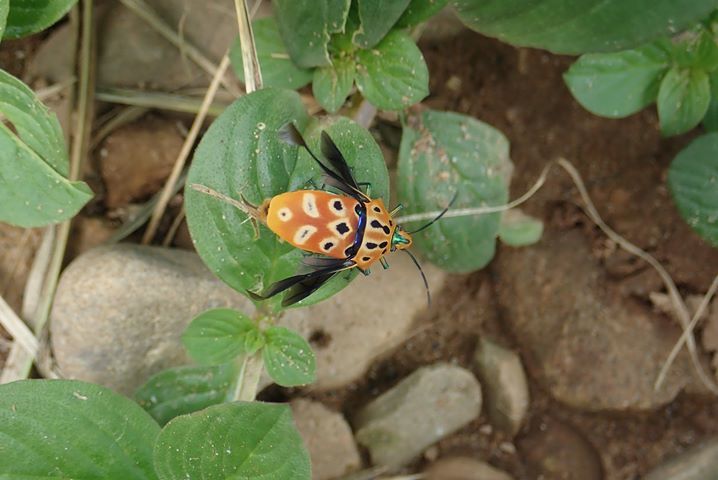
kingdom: Animalia
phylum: Arthropoda
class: Insecta
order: Hemiptera
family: Scutelleridae
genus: Cantao
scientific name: Cantao ocellatus
